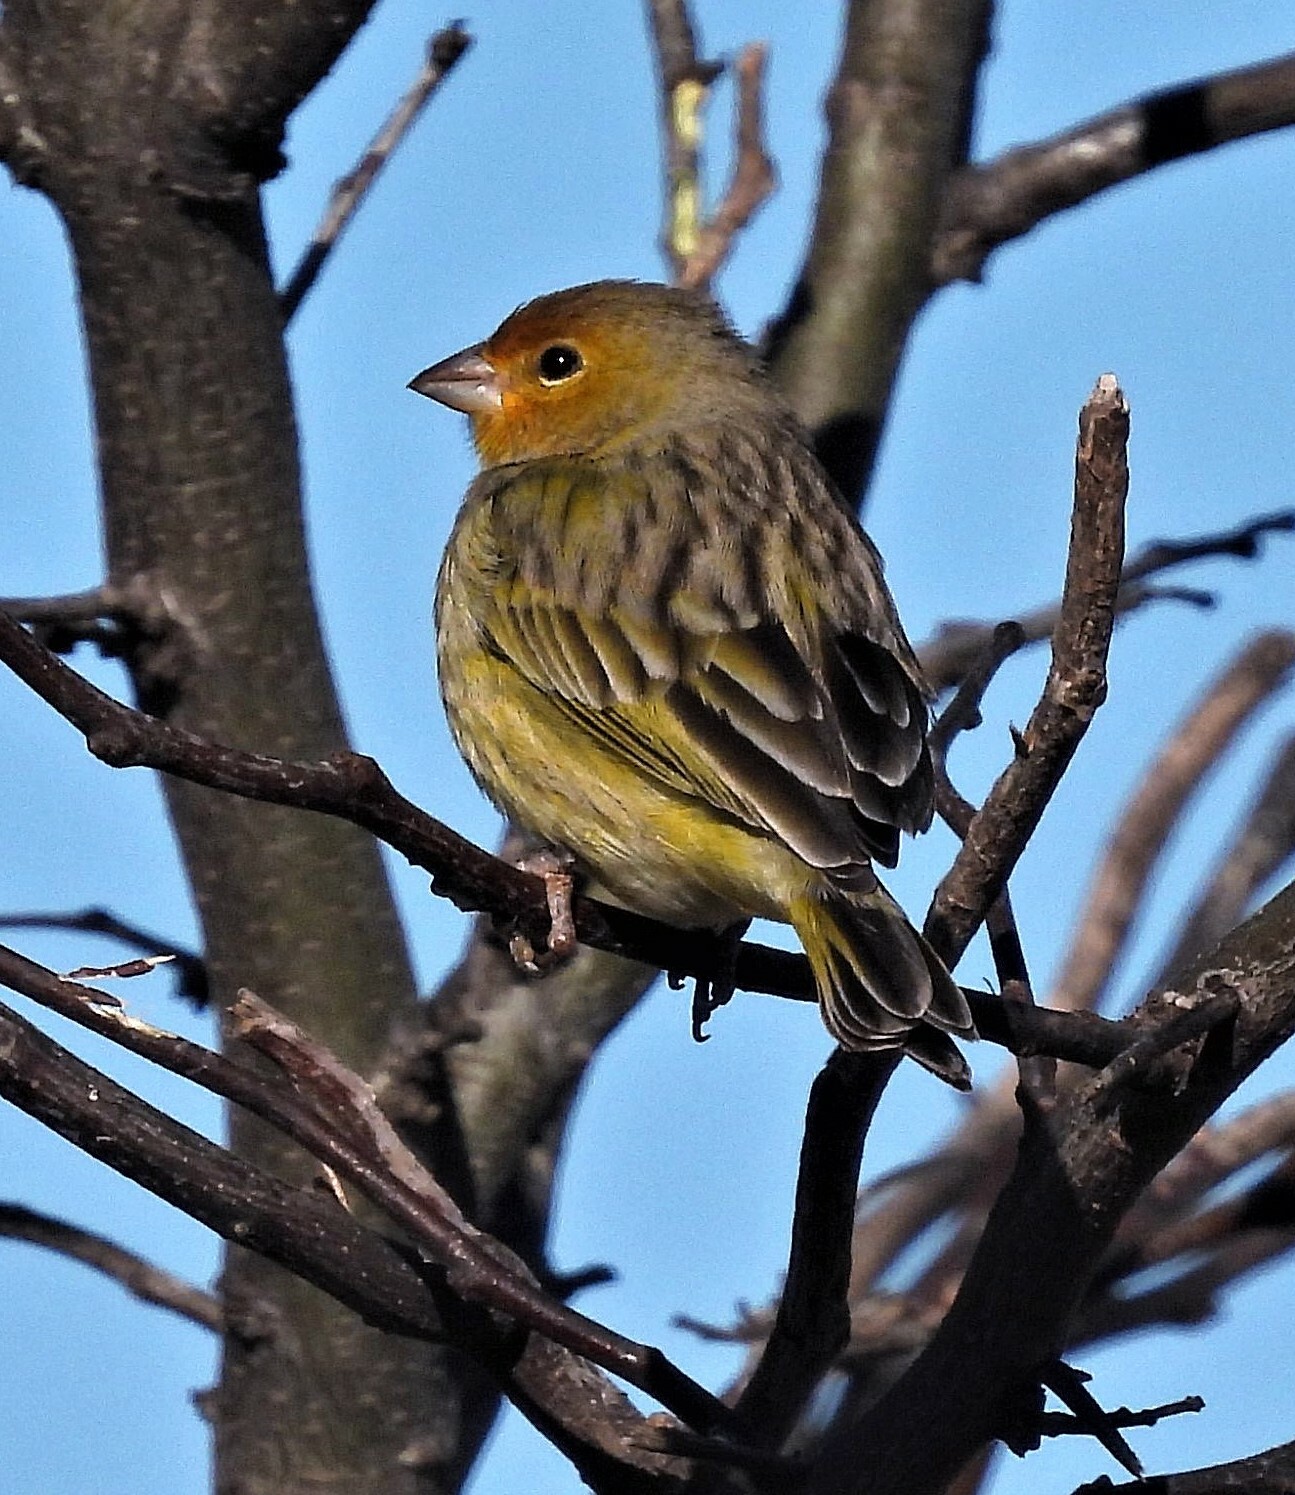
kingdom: Animalia
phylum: Chordata
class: Aves
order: Passeriformes
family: Thraupidae
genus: Sicalis
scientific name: Sicalis flaveola
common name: Saffron finch
